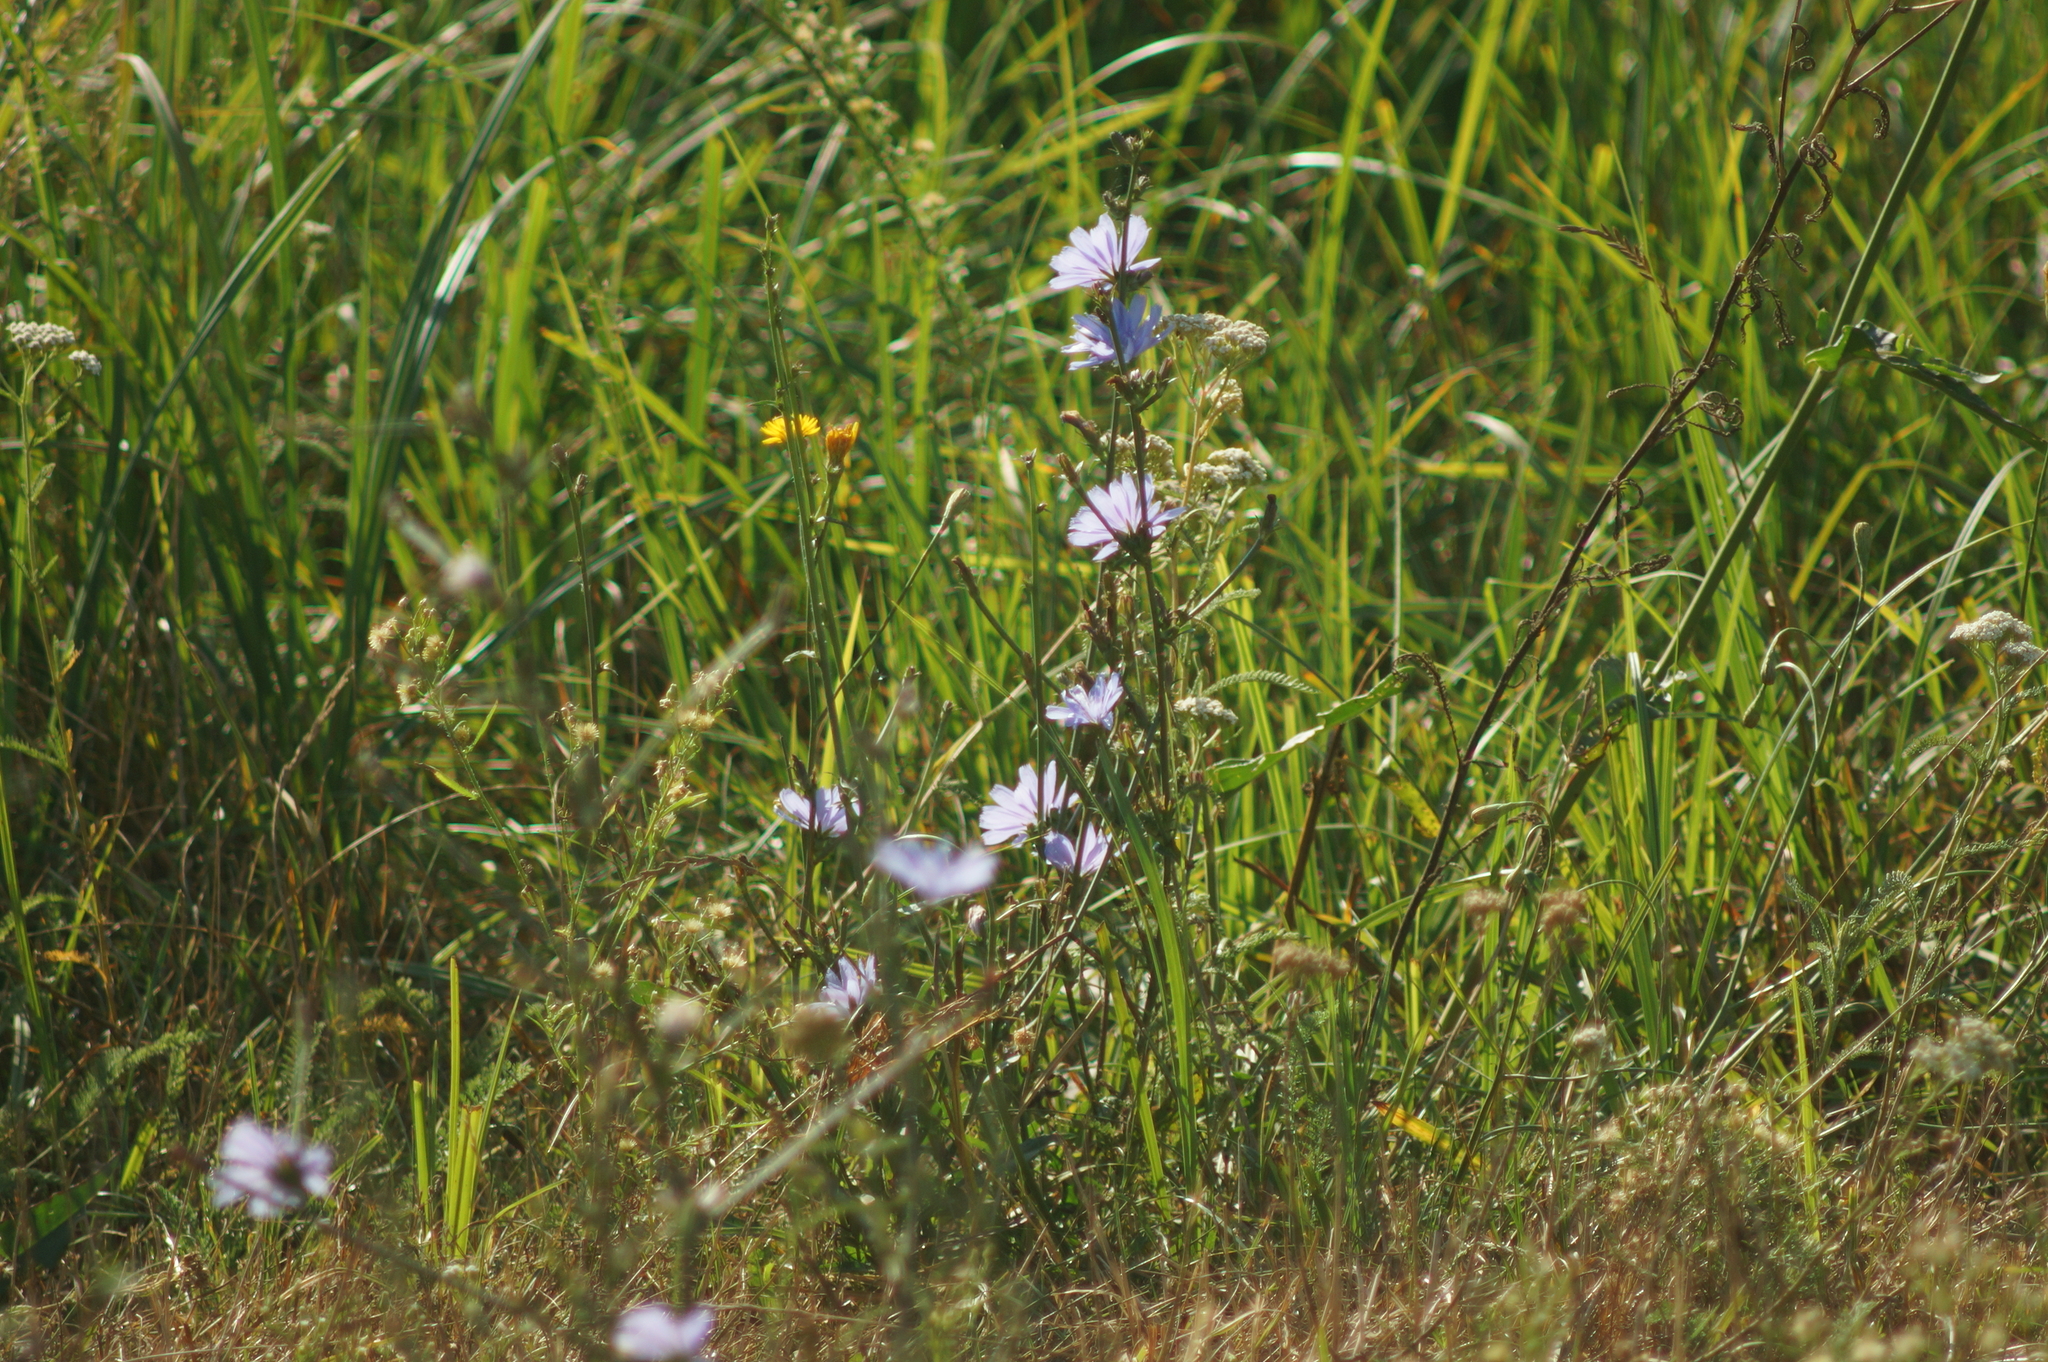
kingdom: Plantae
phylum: Tracheophyta
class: Magnoliopsida
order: Asterales
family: Asteraceae
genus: Cichorium
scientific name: Cichorium intybus
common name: Chicory
